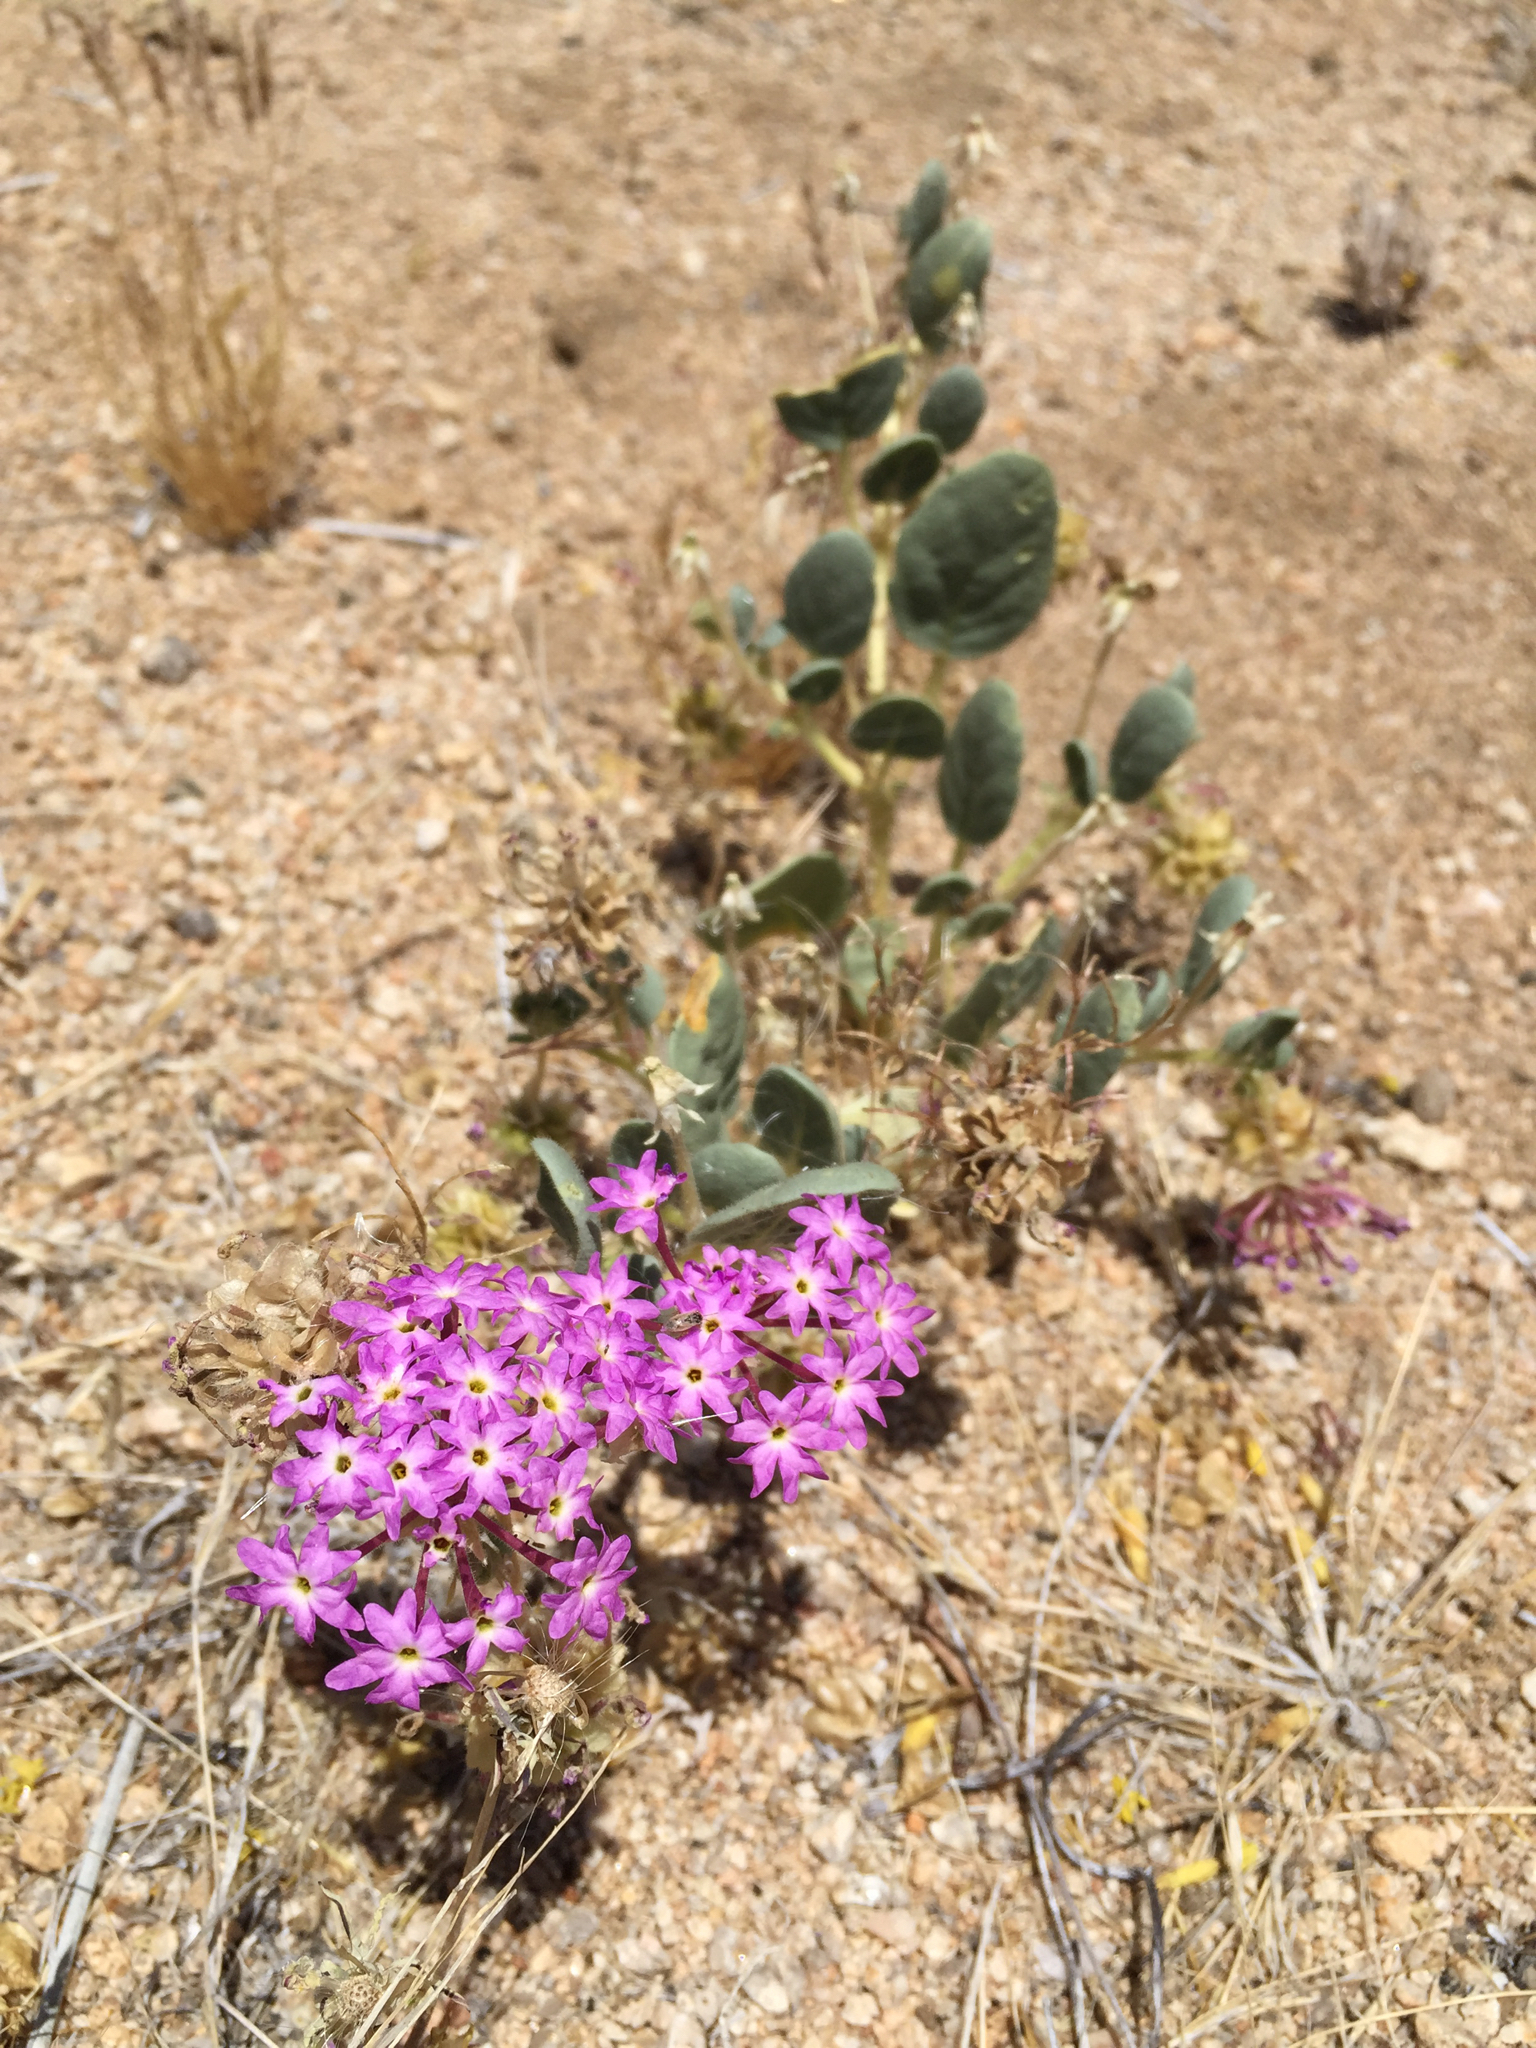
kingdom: Plantae
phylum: Tracheophyta
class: Magnoliopsida
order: Caryophyllales
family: Nyctaginaceae
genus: Abronia
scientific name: Abronia villosa
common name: Desert sand-verbena
